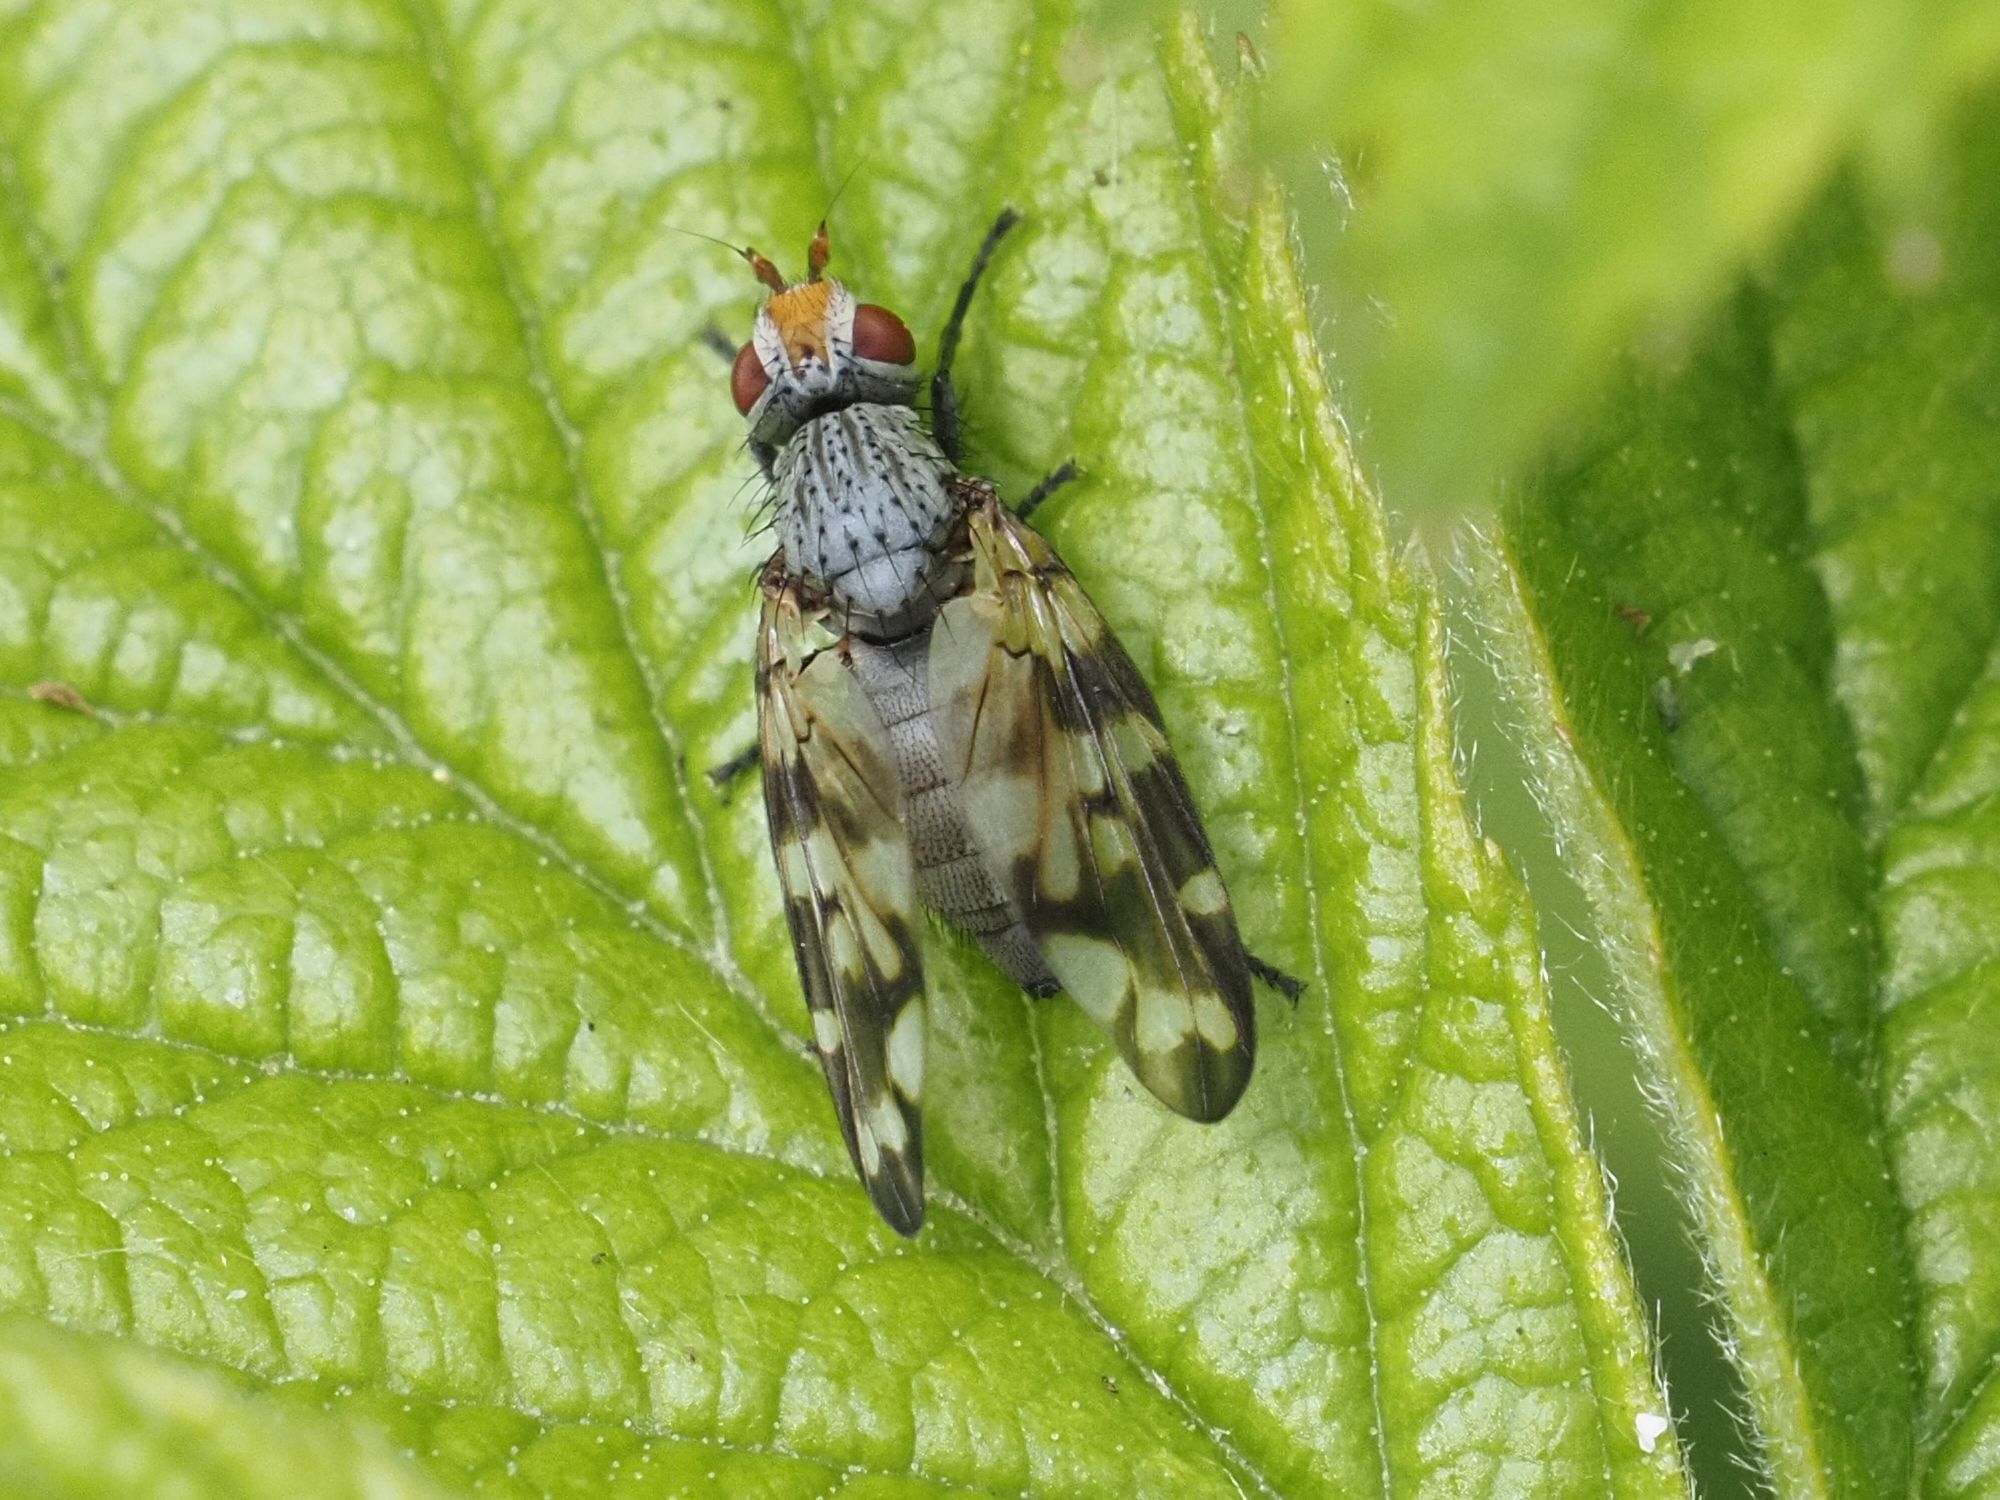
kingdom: Animalia
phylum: Arthropoda
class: Insecta
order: Diptera
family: Ulidiidae
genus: Otites
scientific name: Otites centralis
